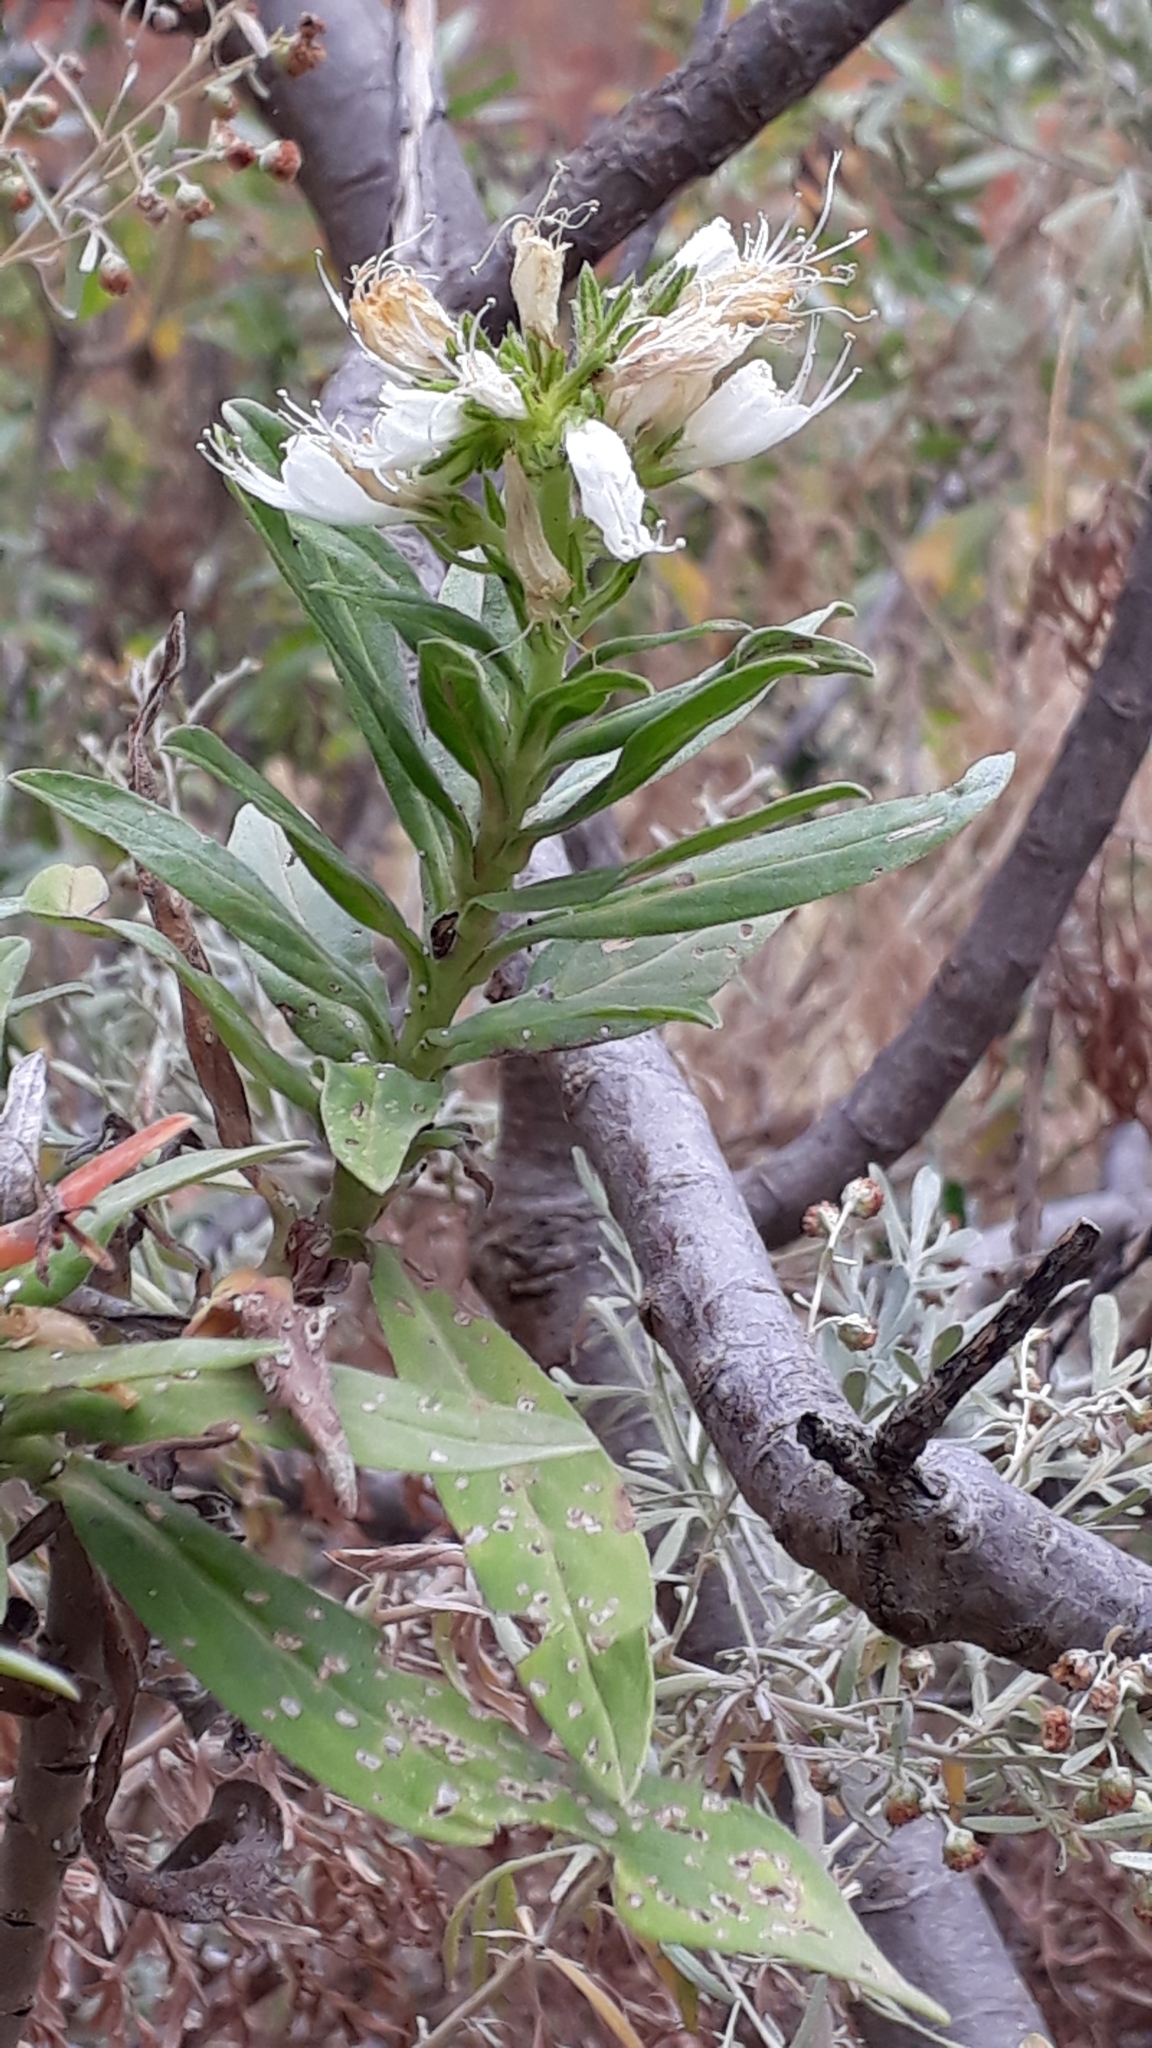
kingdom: Plantae
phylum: Tracheophyta
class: Magnoliopsida
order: Boraginales
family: Boraginaceae
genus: Echium
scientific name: Echium giganteum
